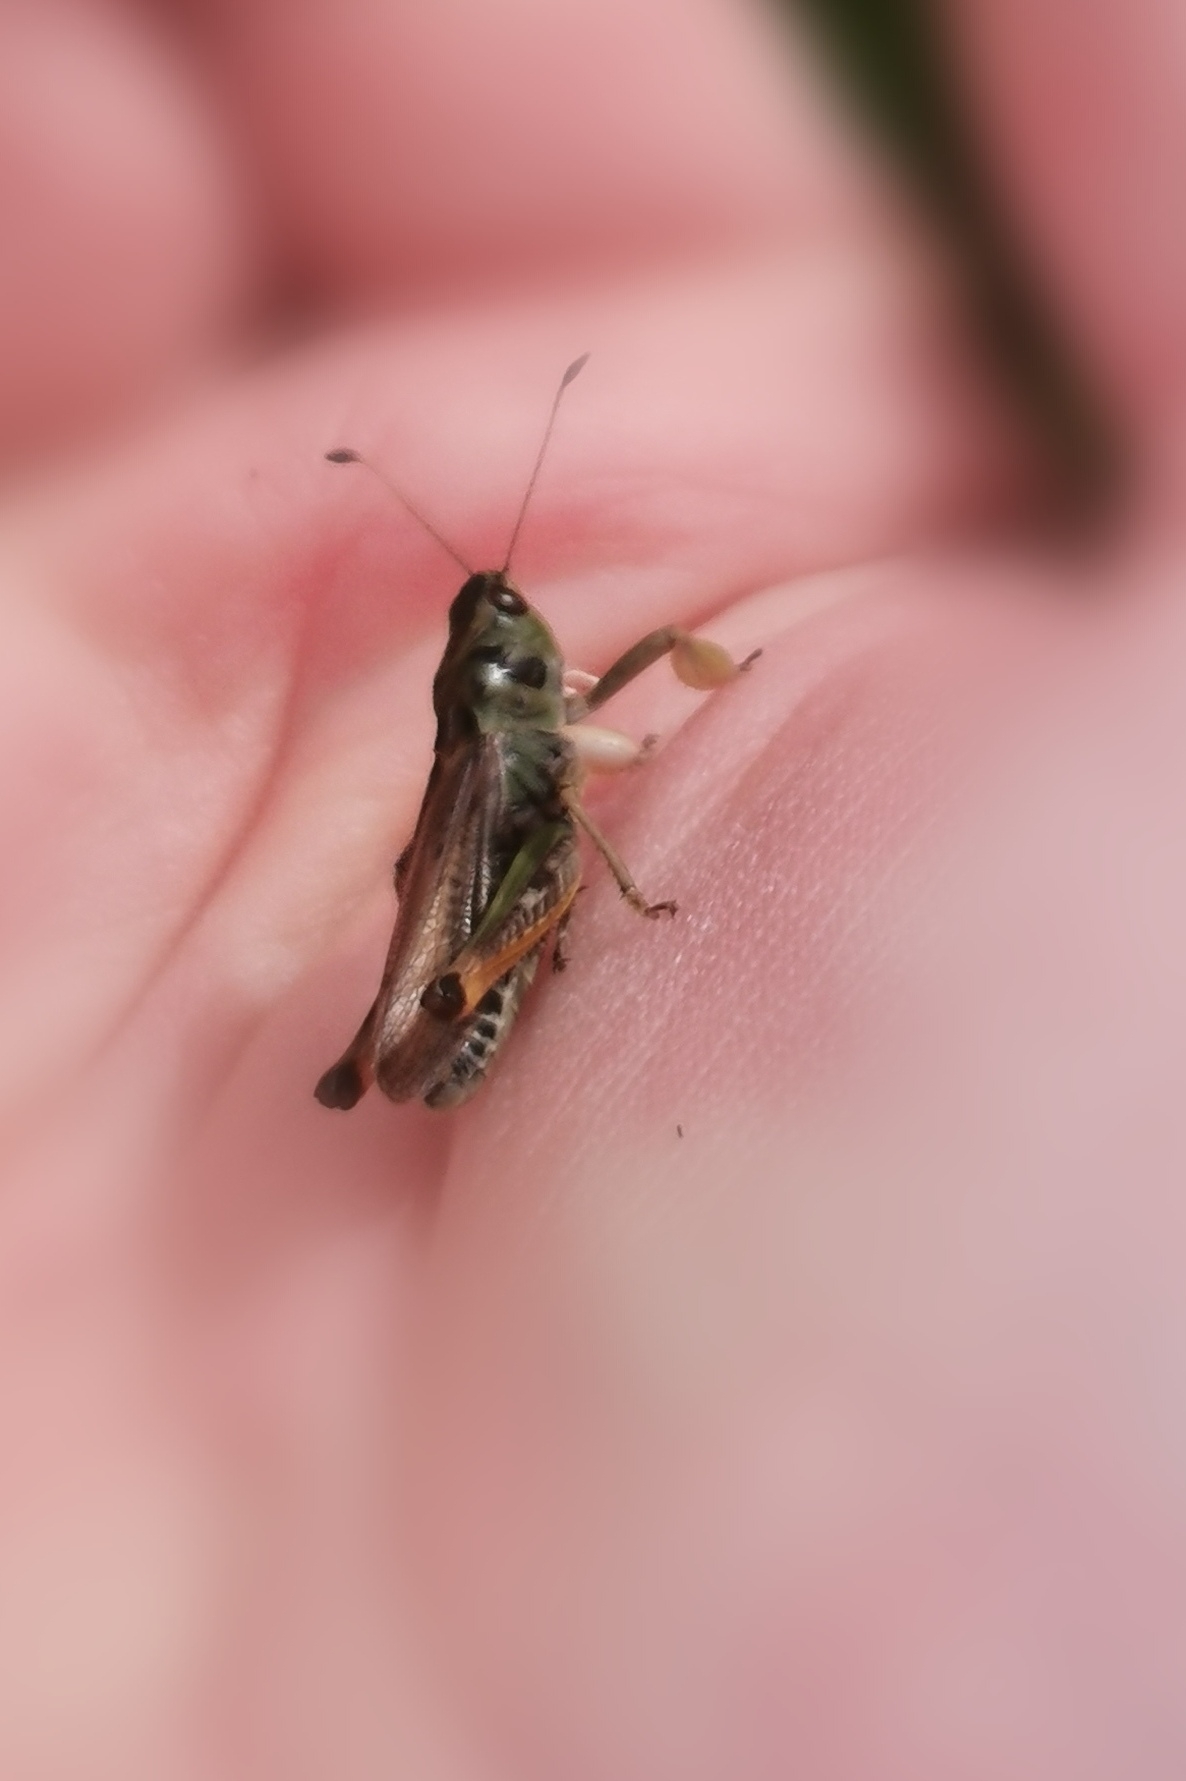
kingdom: Animalia
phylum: Arthropoda
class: Insecta
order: Orthoptera
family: Acrididae
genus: Gomphocerus
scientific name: Gomphocerus sibiricus
